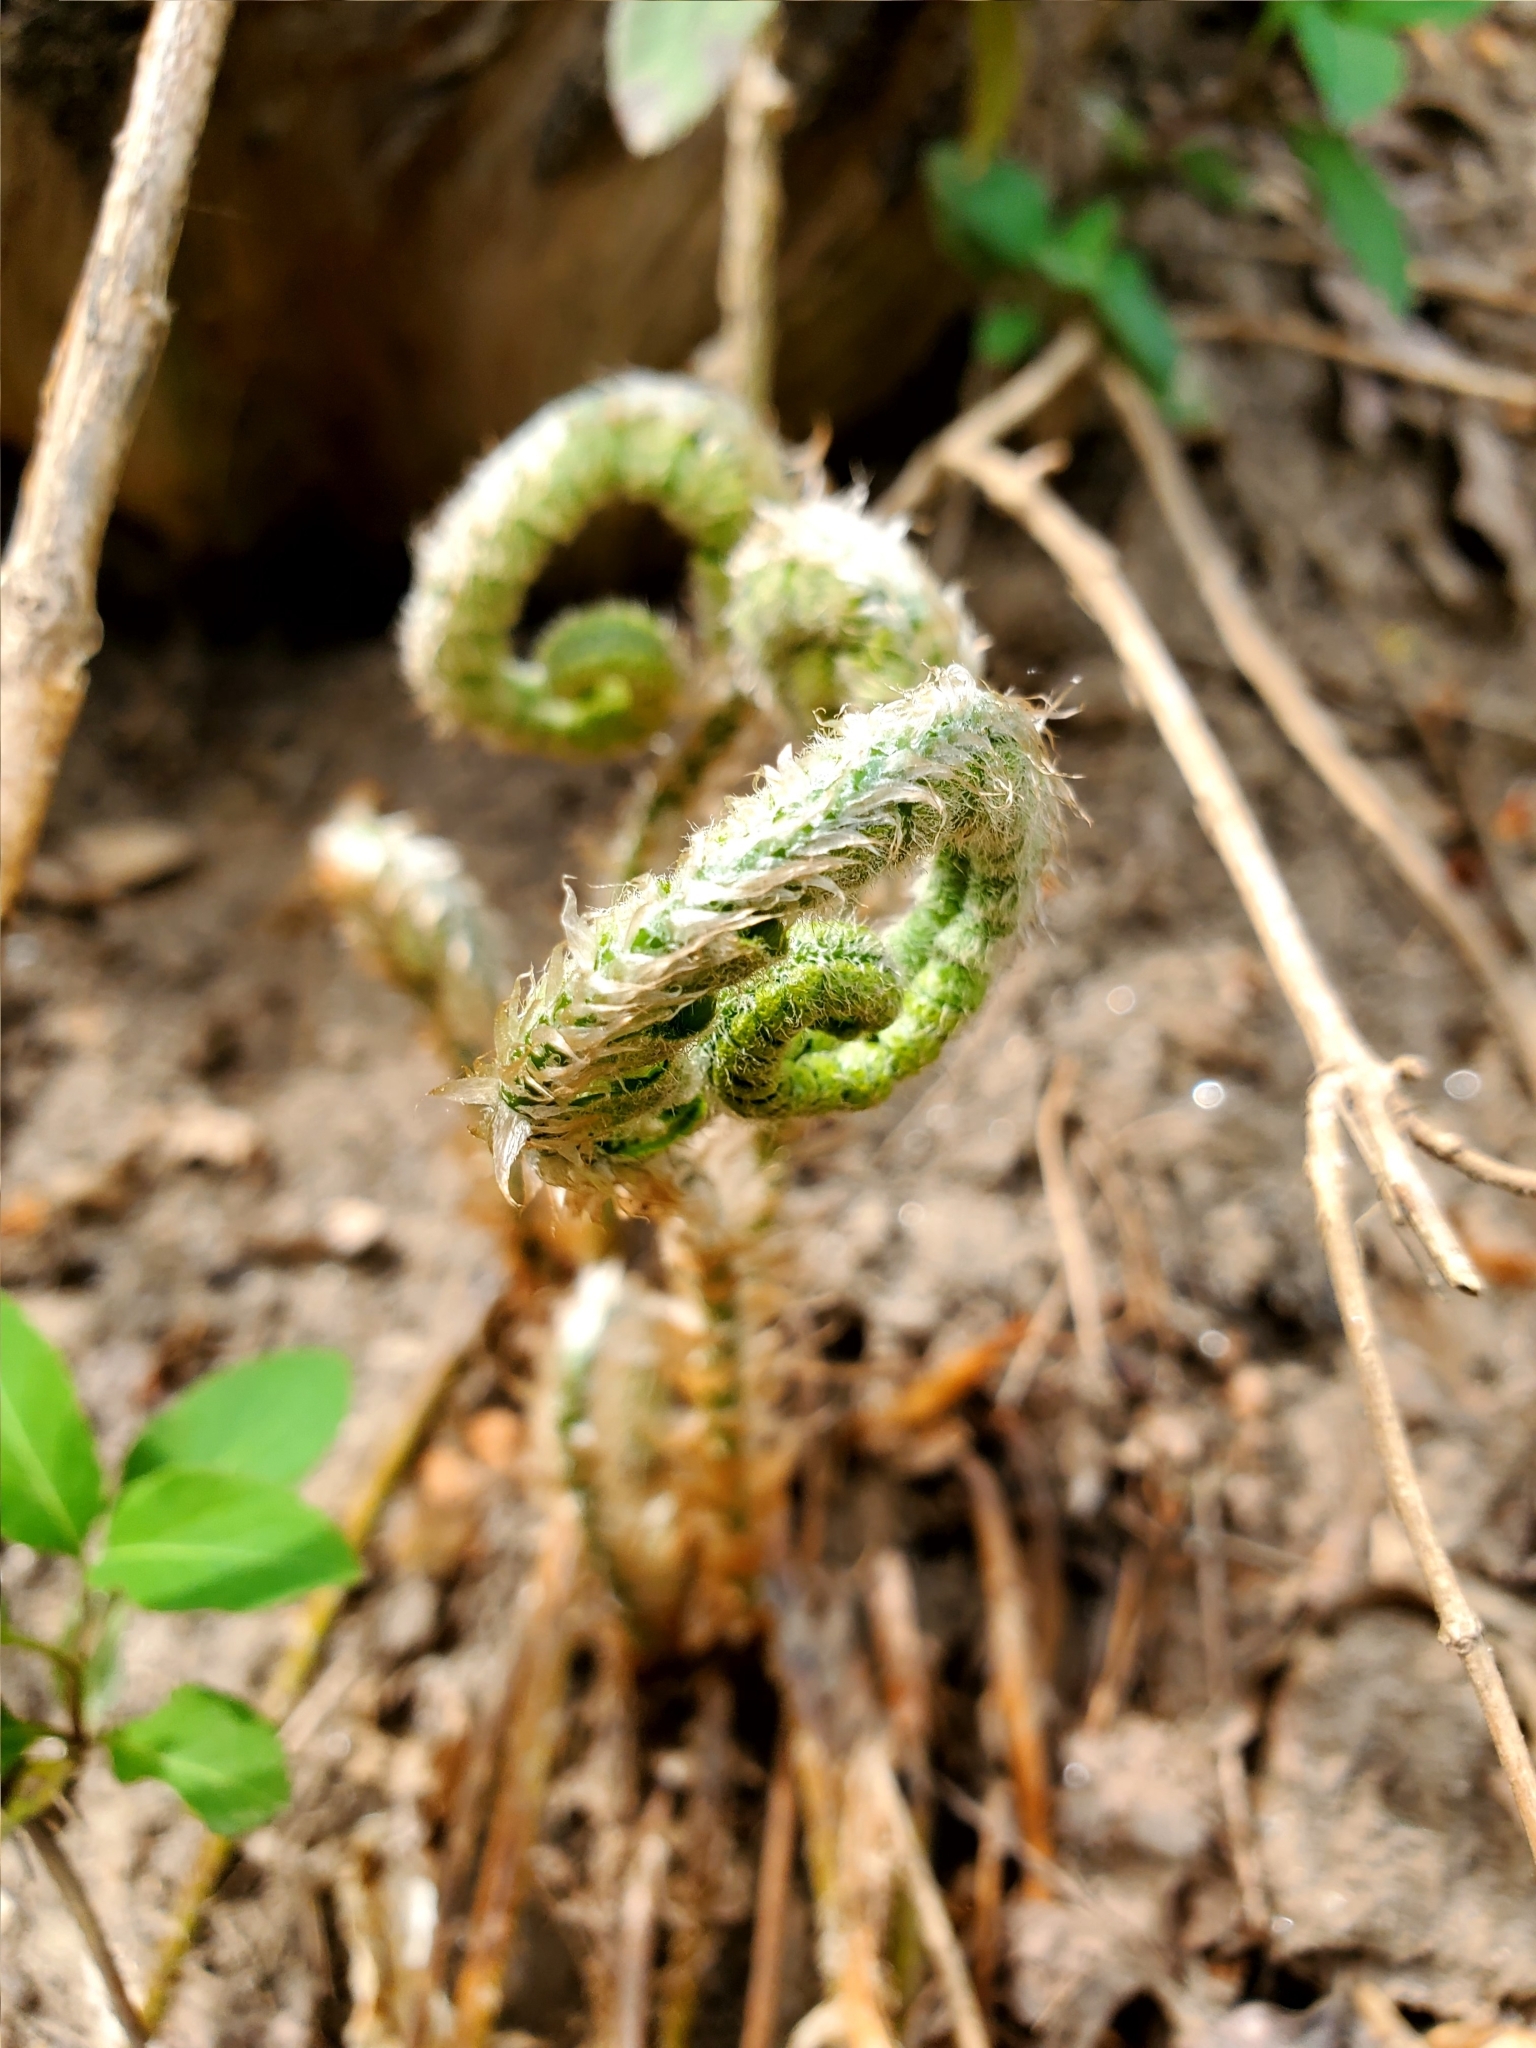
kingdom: Plantae
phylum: Tracheophyta
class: Polypodiopsida
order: Polypodiales
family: Dryopteridaceae
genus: Polystichum
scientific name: Polystichum acrostichoides
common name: Christmas fern
